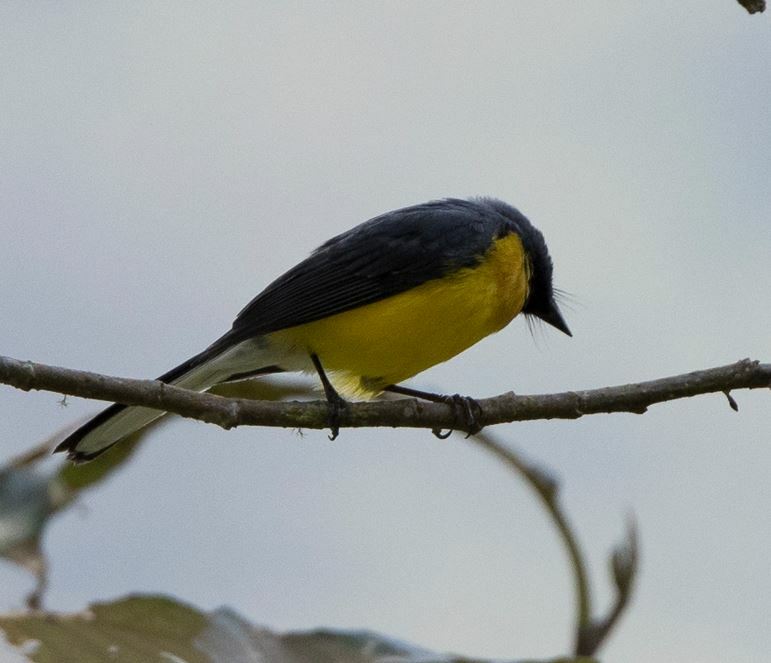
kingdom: Animalia
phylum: Chordata
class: Aves
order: Passeriformes
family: Parulidae
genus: Myioborus
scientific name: Myioborus miniatus
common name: Slate-throated redstart
